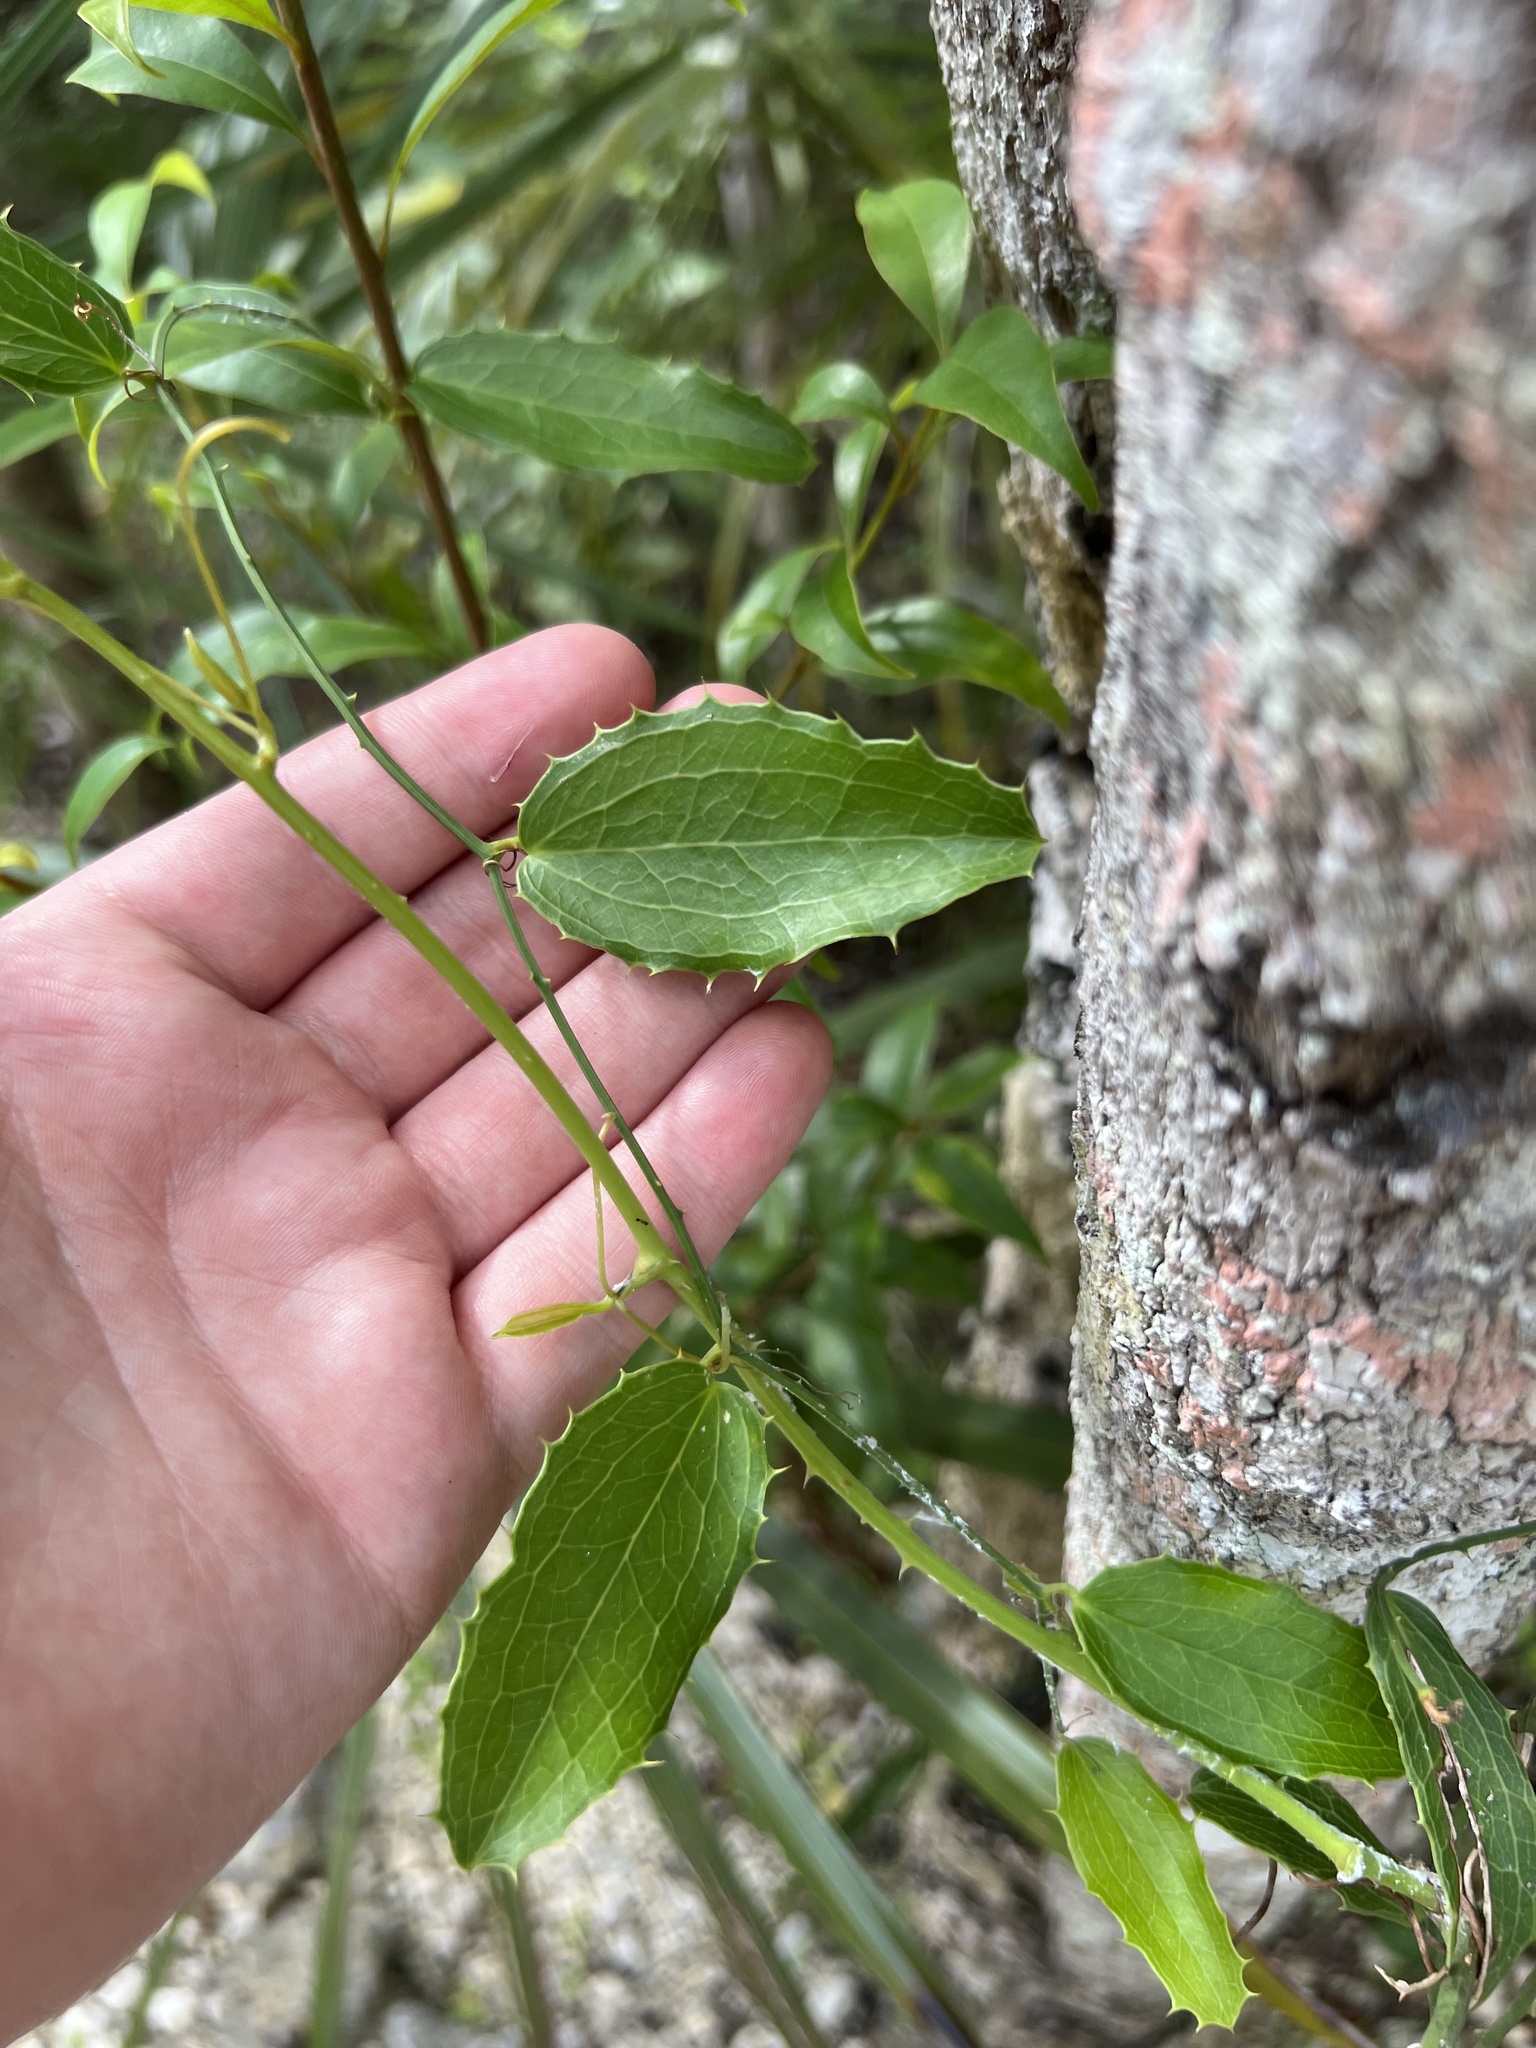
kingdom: Plantae
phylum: Tracheophyta
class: Liliopsida
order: Liliales
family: Smilacaceae
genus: Smilax
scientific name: Smilax havanensis
